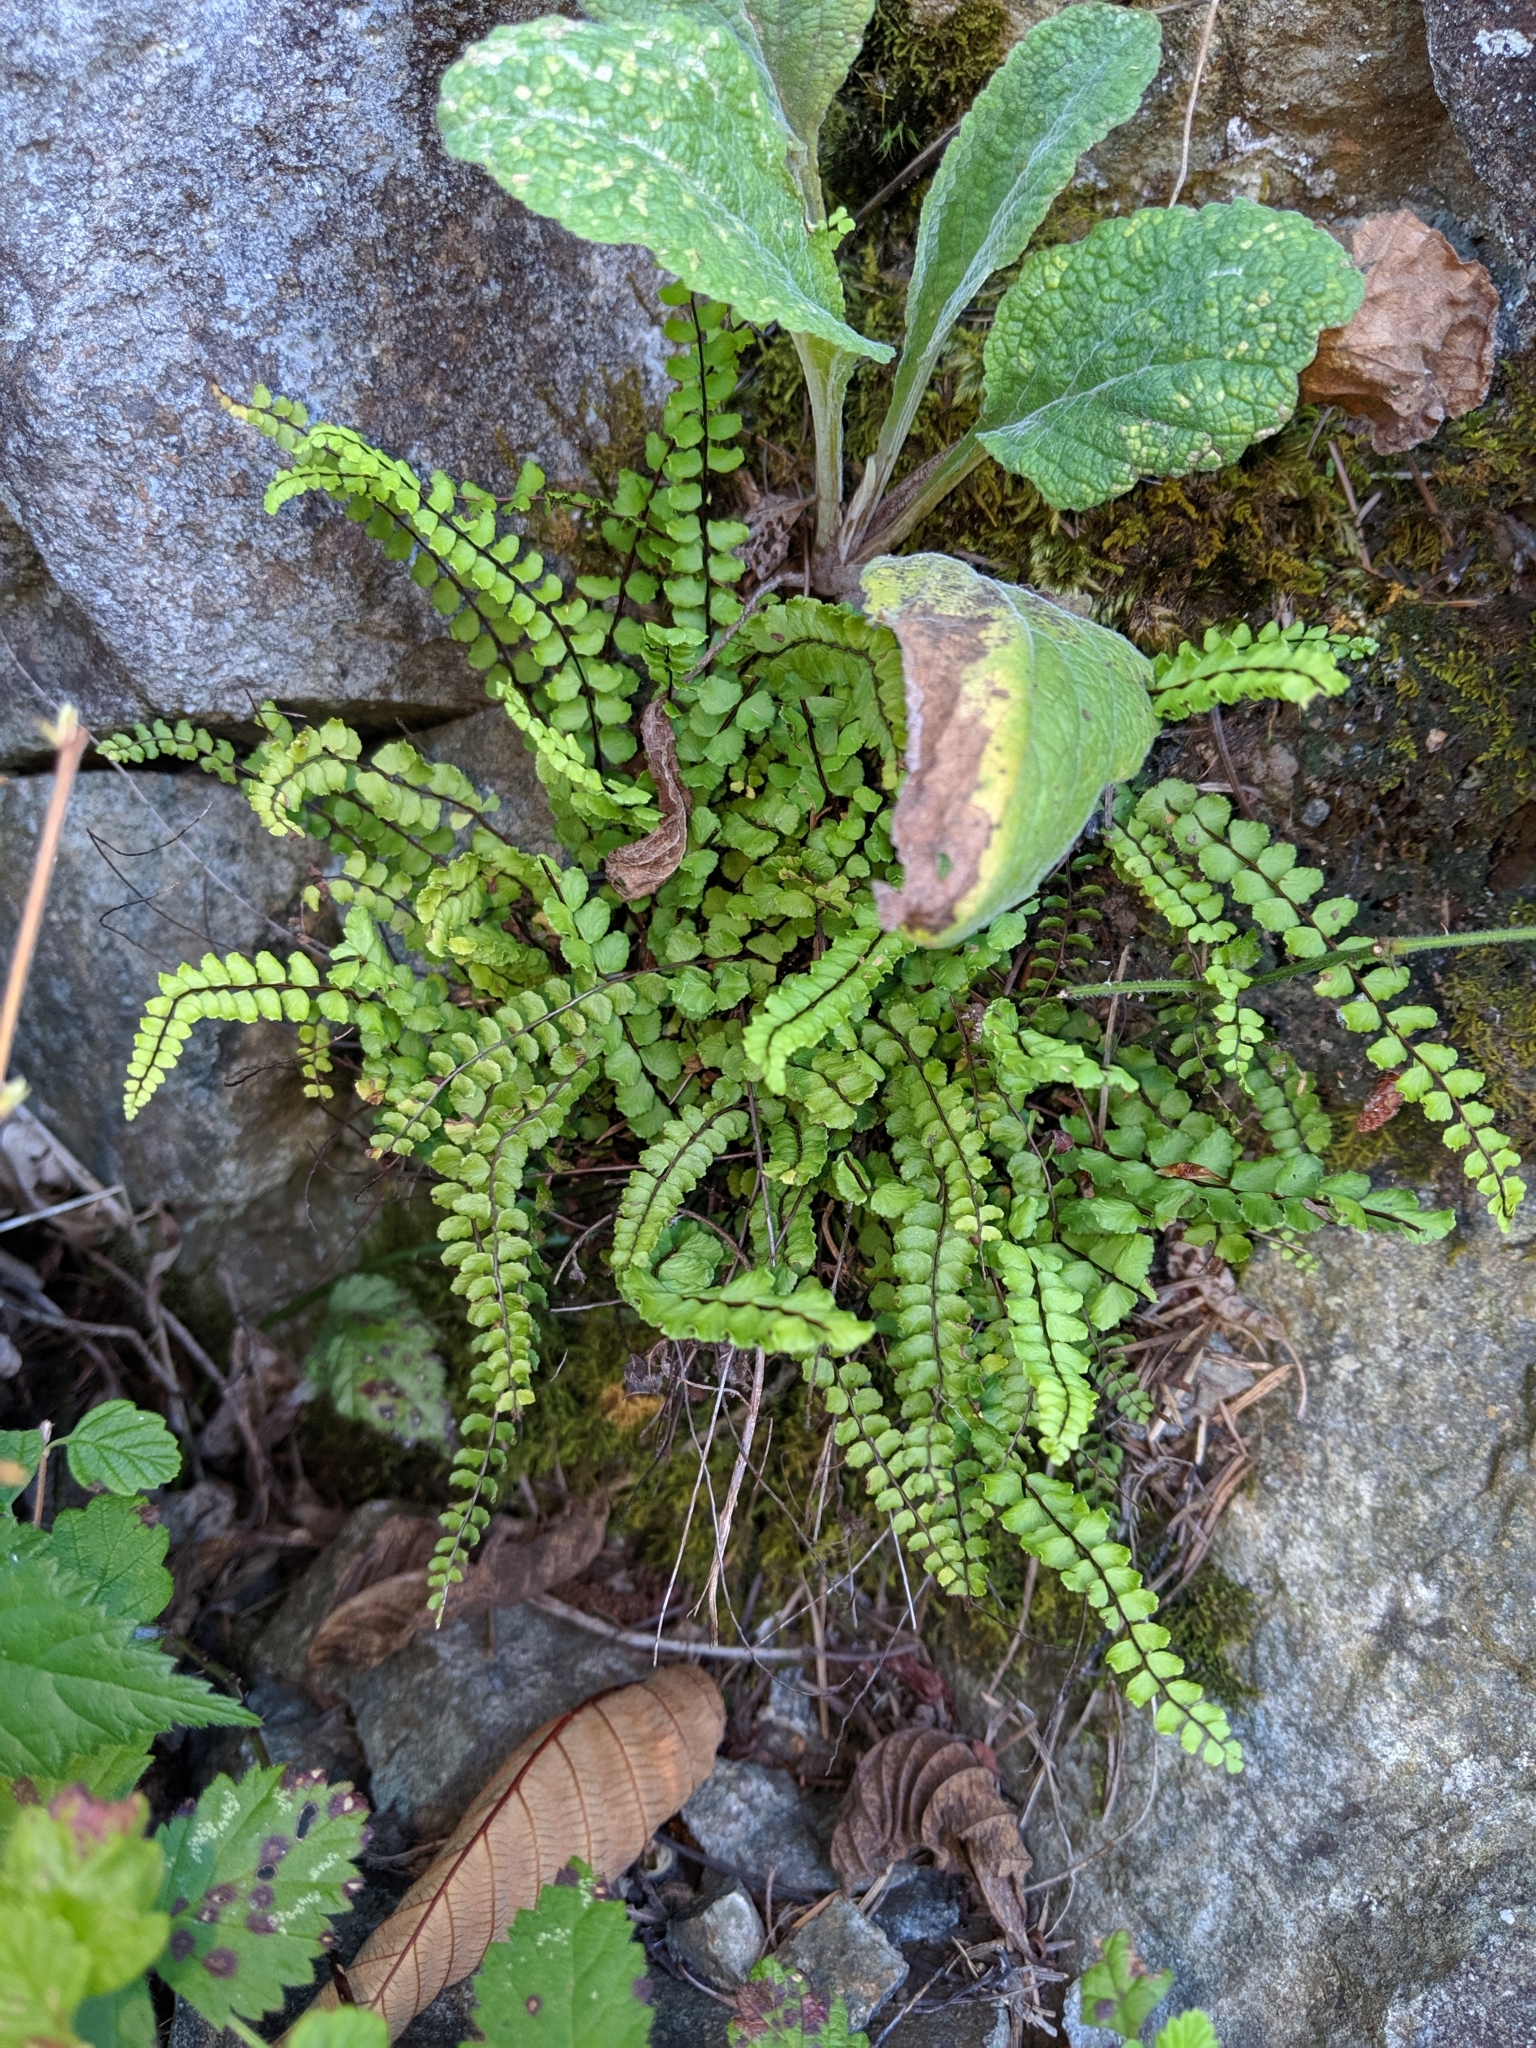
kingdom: Plantae
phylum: Tracheophyta
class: Polypodiopsida
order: Polypodiales
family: Aspleniaceae
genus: Asplenium
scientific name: Asplenium trichomanes
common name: Maidenhair spleenwort
